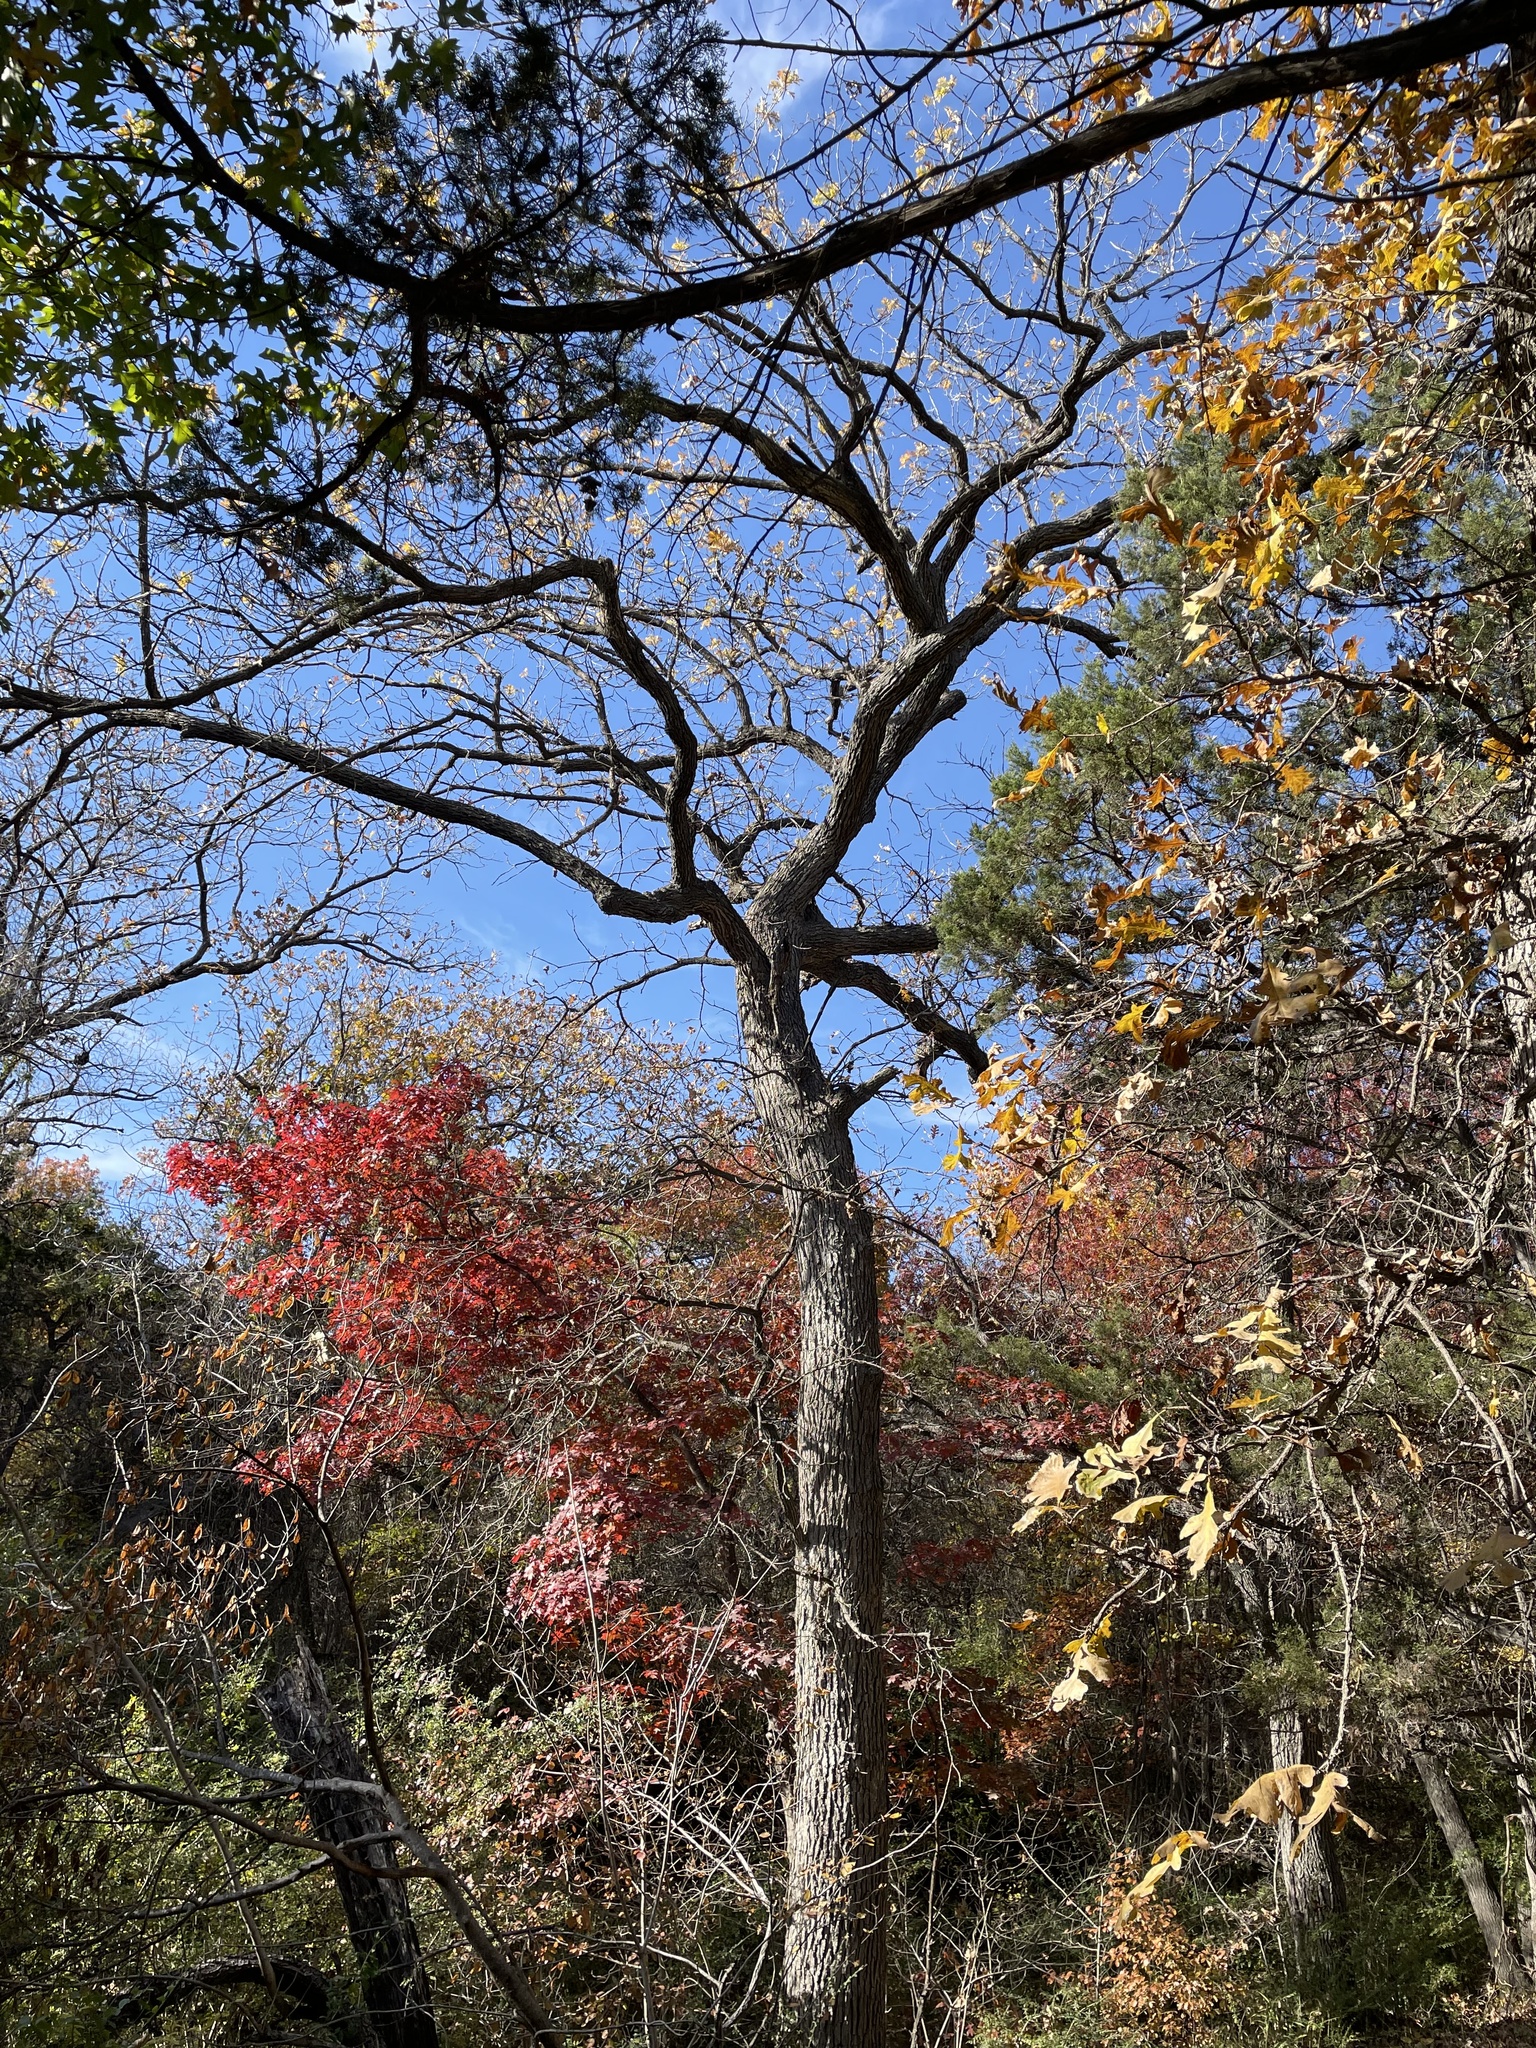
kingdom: Plantae
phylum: Tracheophyta
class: Magnoliopsida
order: Fagales
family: Fagaceae
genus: Quercus
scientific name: Quercus macrocarpa
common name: Bur oak
